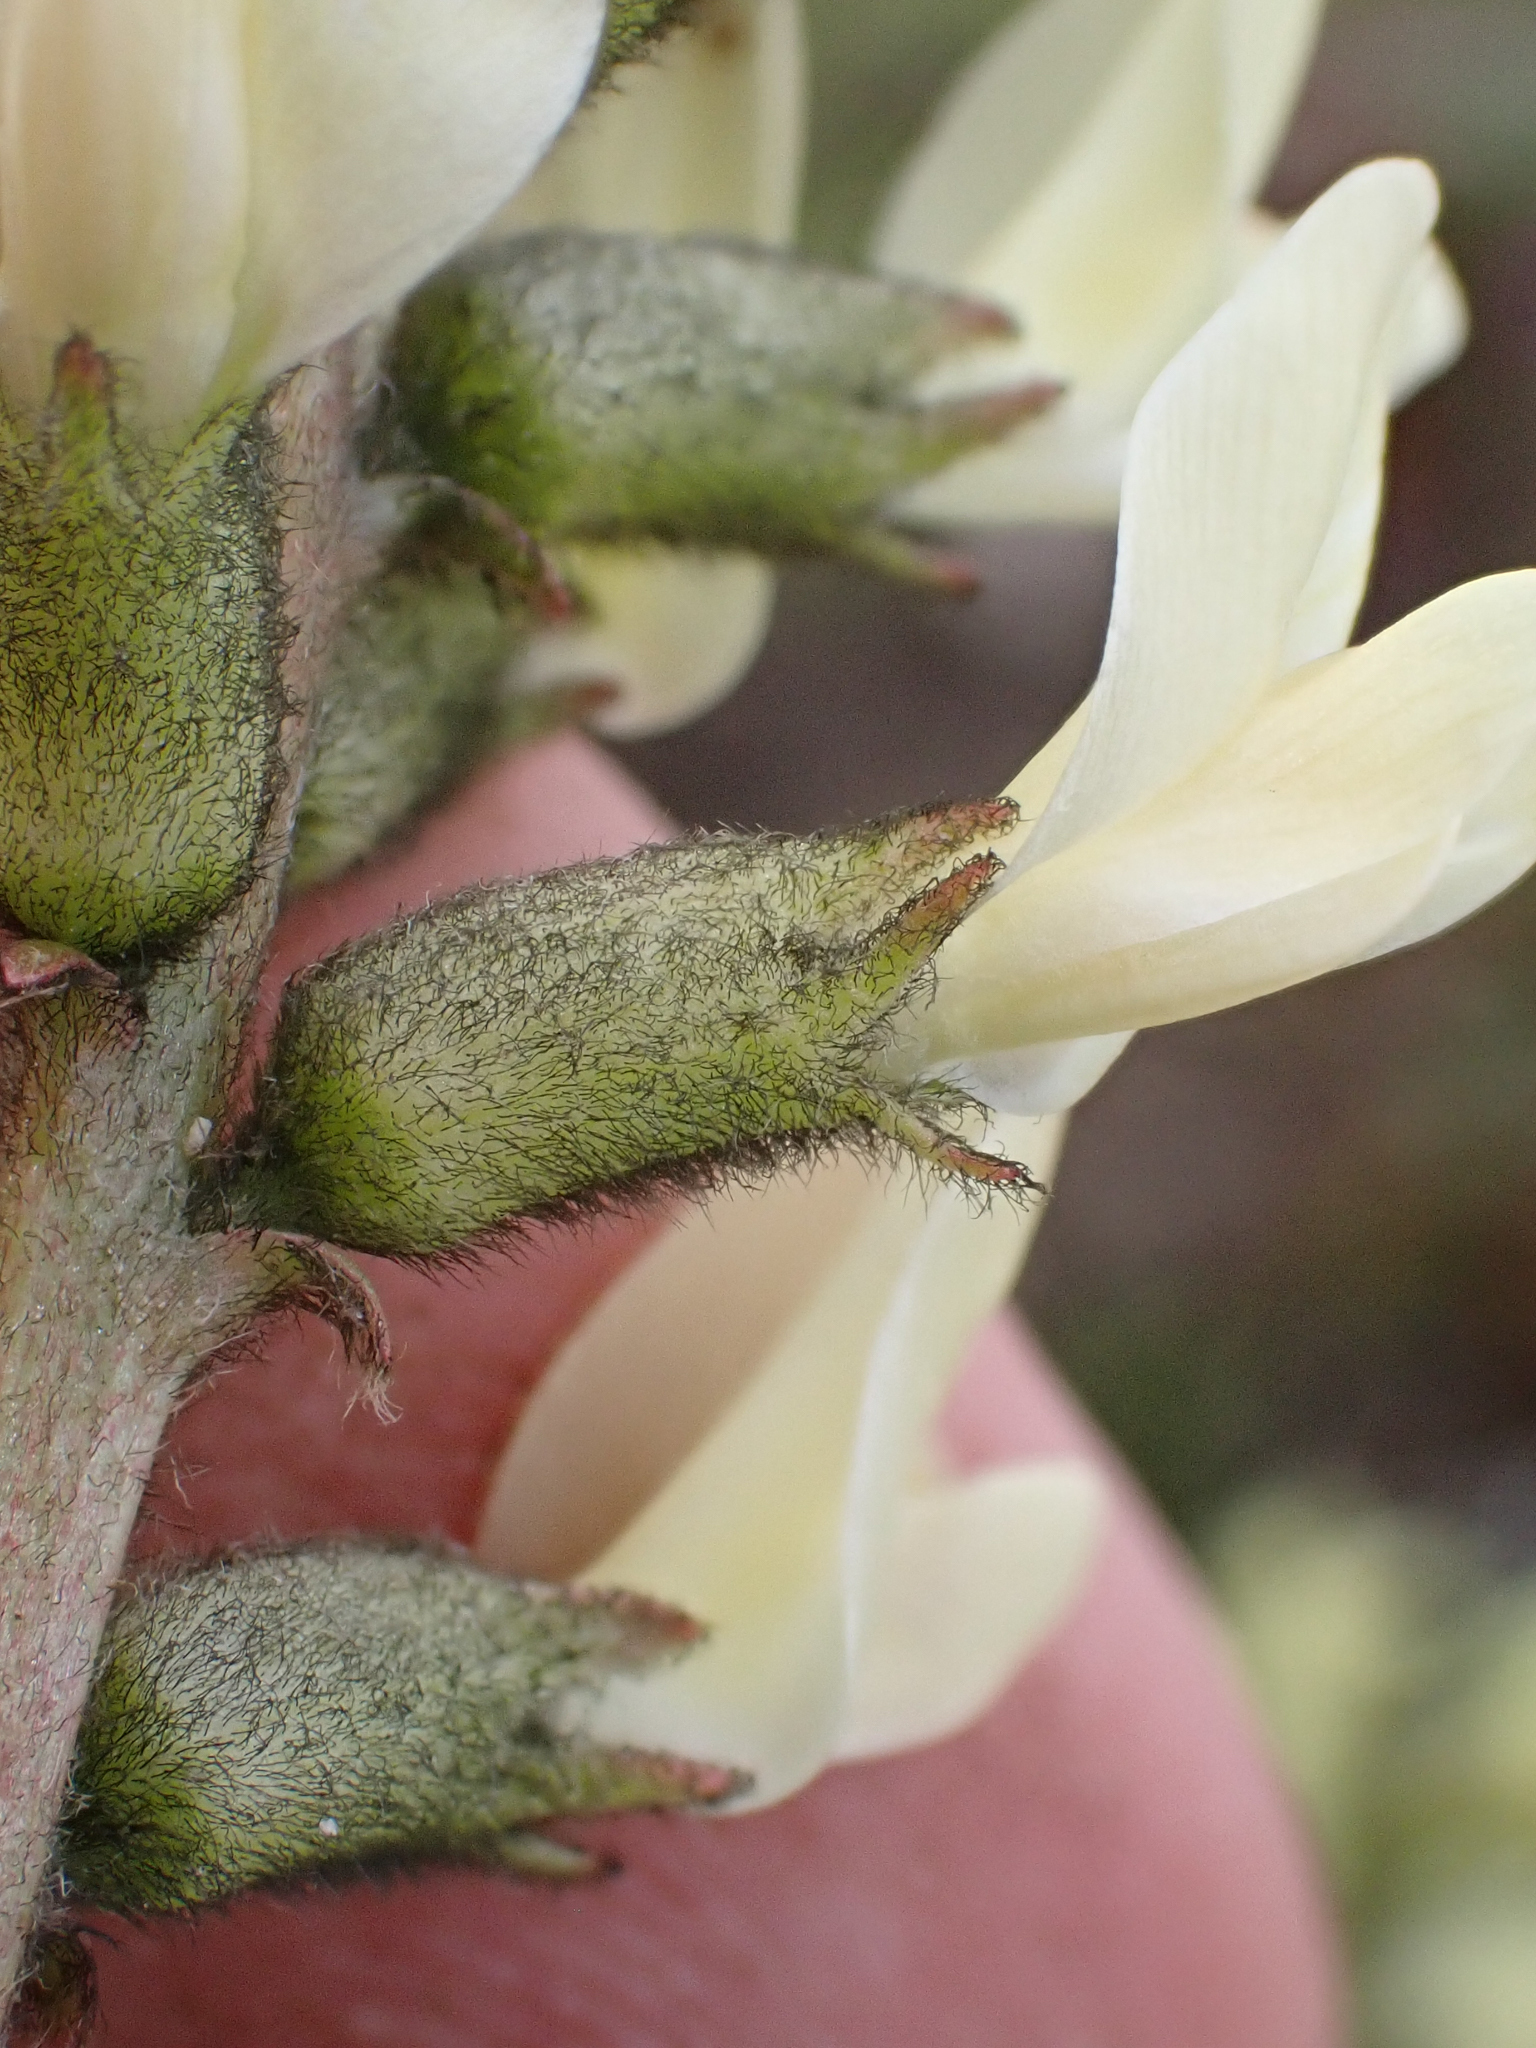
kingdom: Plantae
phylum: Tracheophyta
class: Magnoliopsida
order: Fabales
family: Fabaceae
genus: Astragalus
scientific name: Astragalus lentiginosus
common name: Freckled milkvetch
